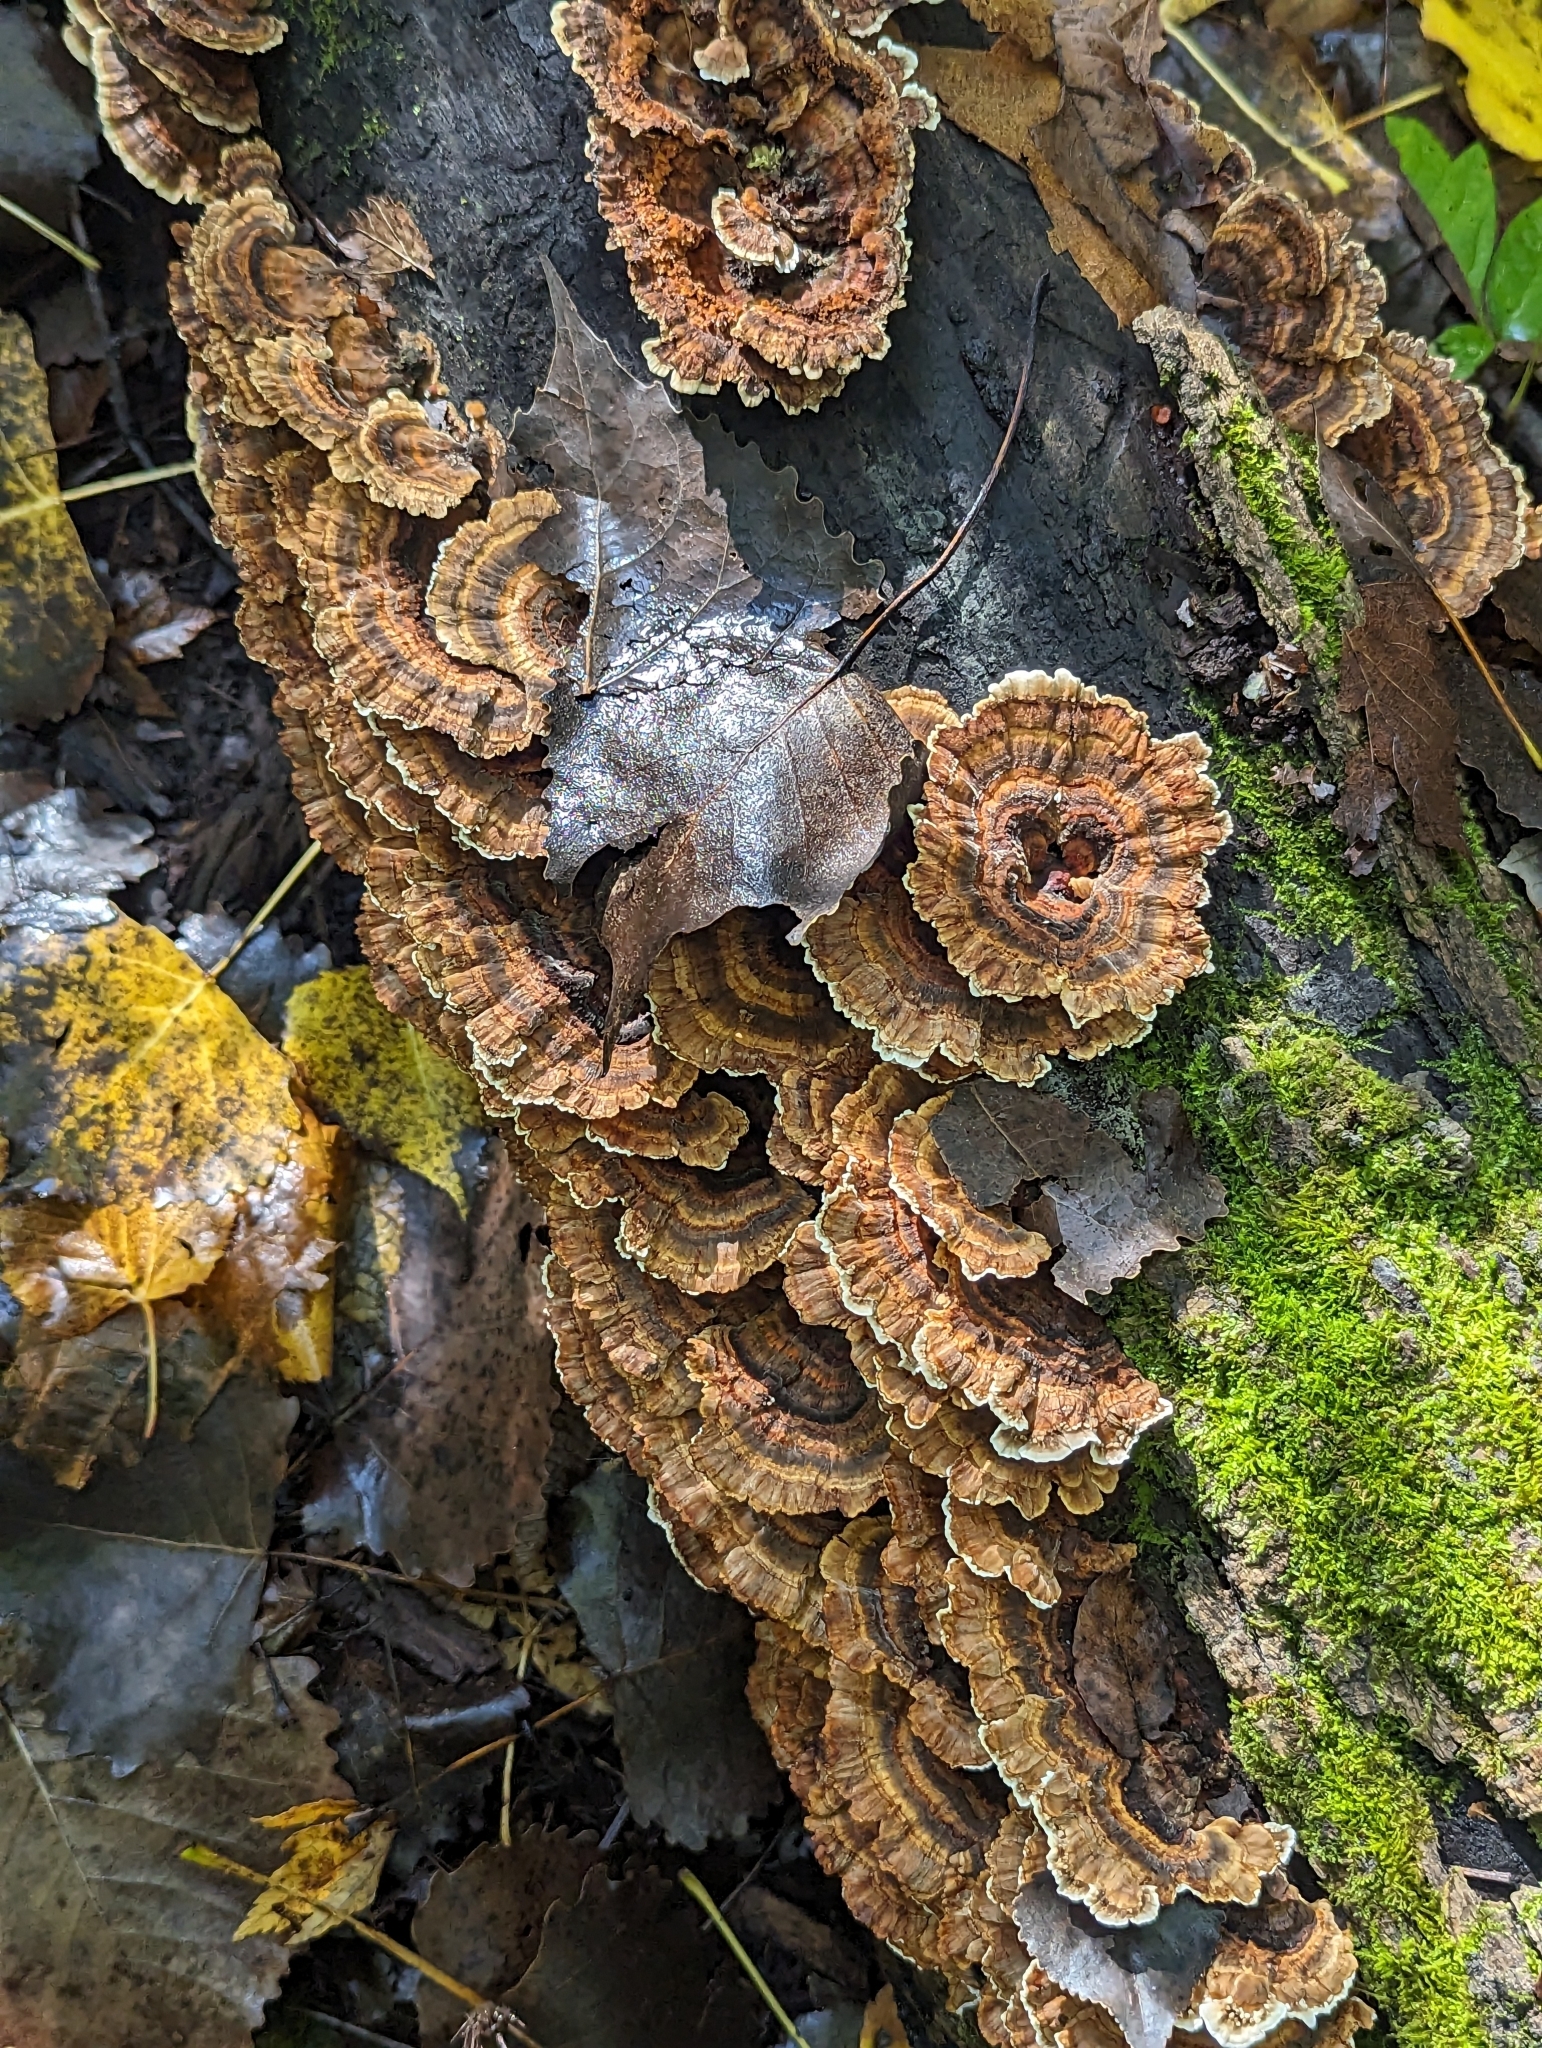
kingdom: Fungi
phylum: Basidiomycota
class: Agaricomycetes
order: Polyporales
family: Polyporaceae
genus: Trametes
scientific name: Trametes versicolor
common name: Turkeytail
